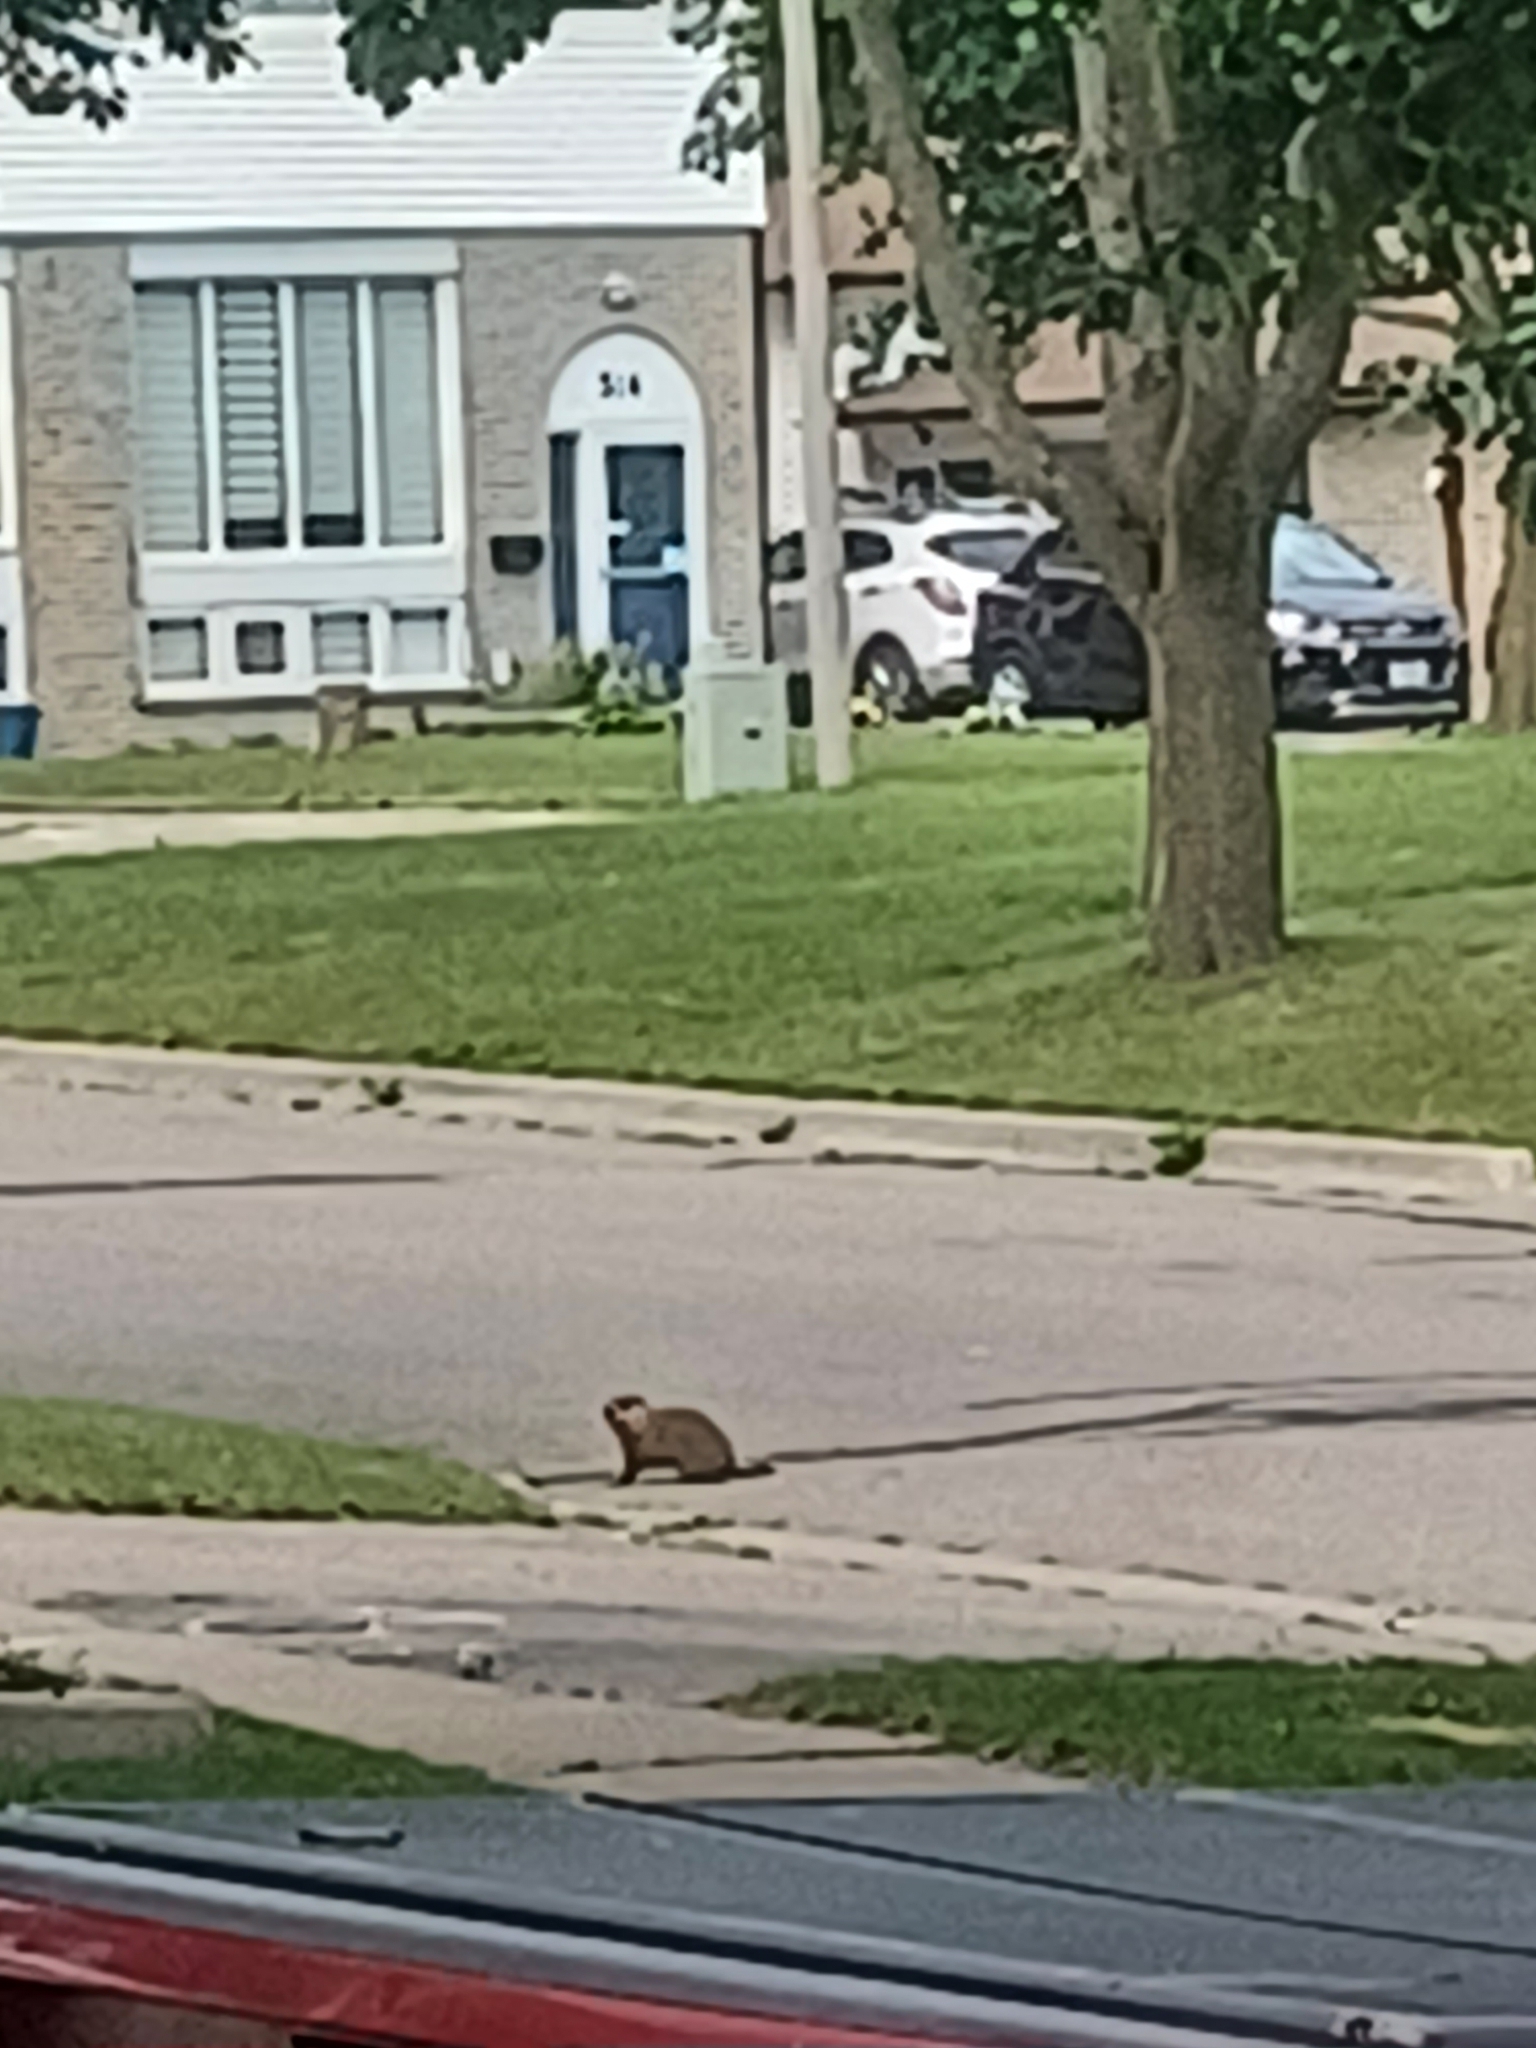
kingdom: Animalia
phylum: Chordata
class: Mammalia
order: Rodentia
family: Sciuridae
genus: Marmota
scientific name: Marmota monax
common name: Groundhog
